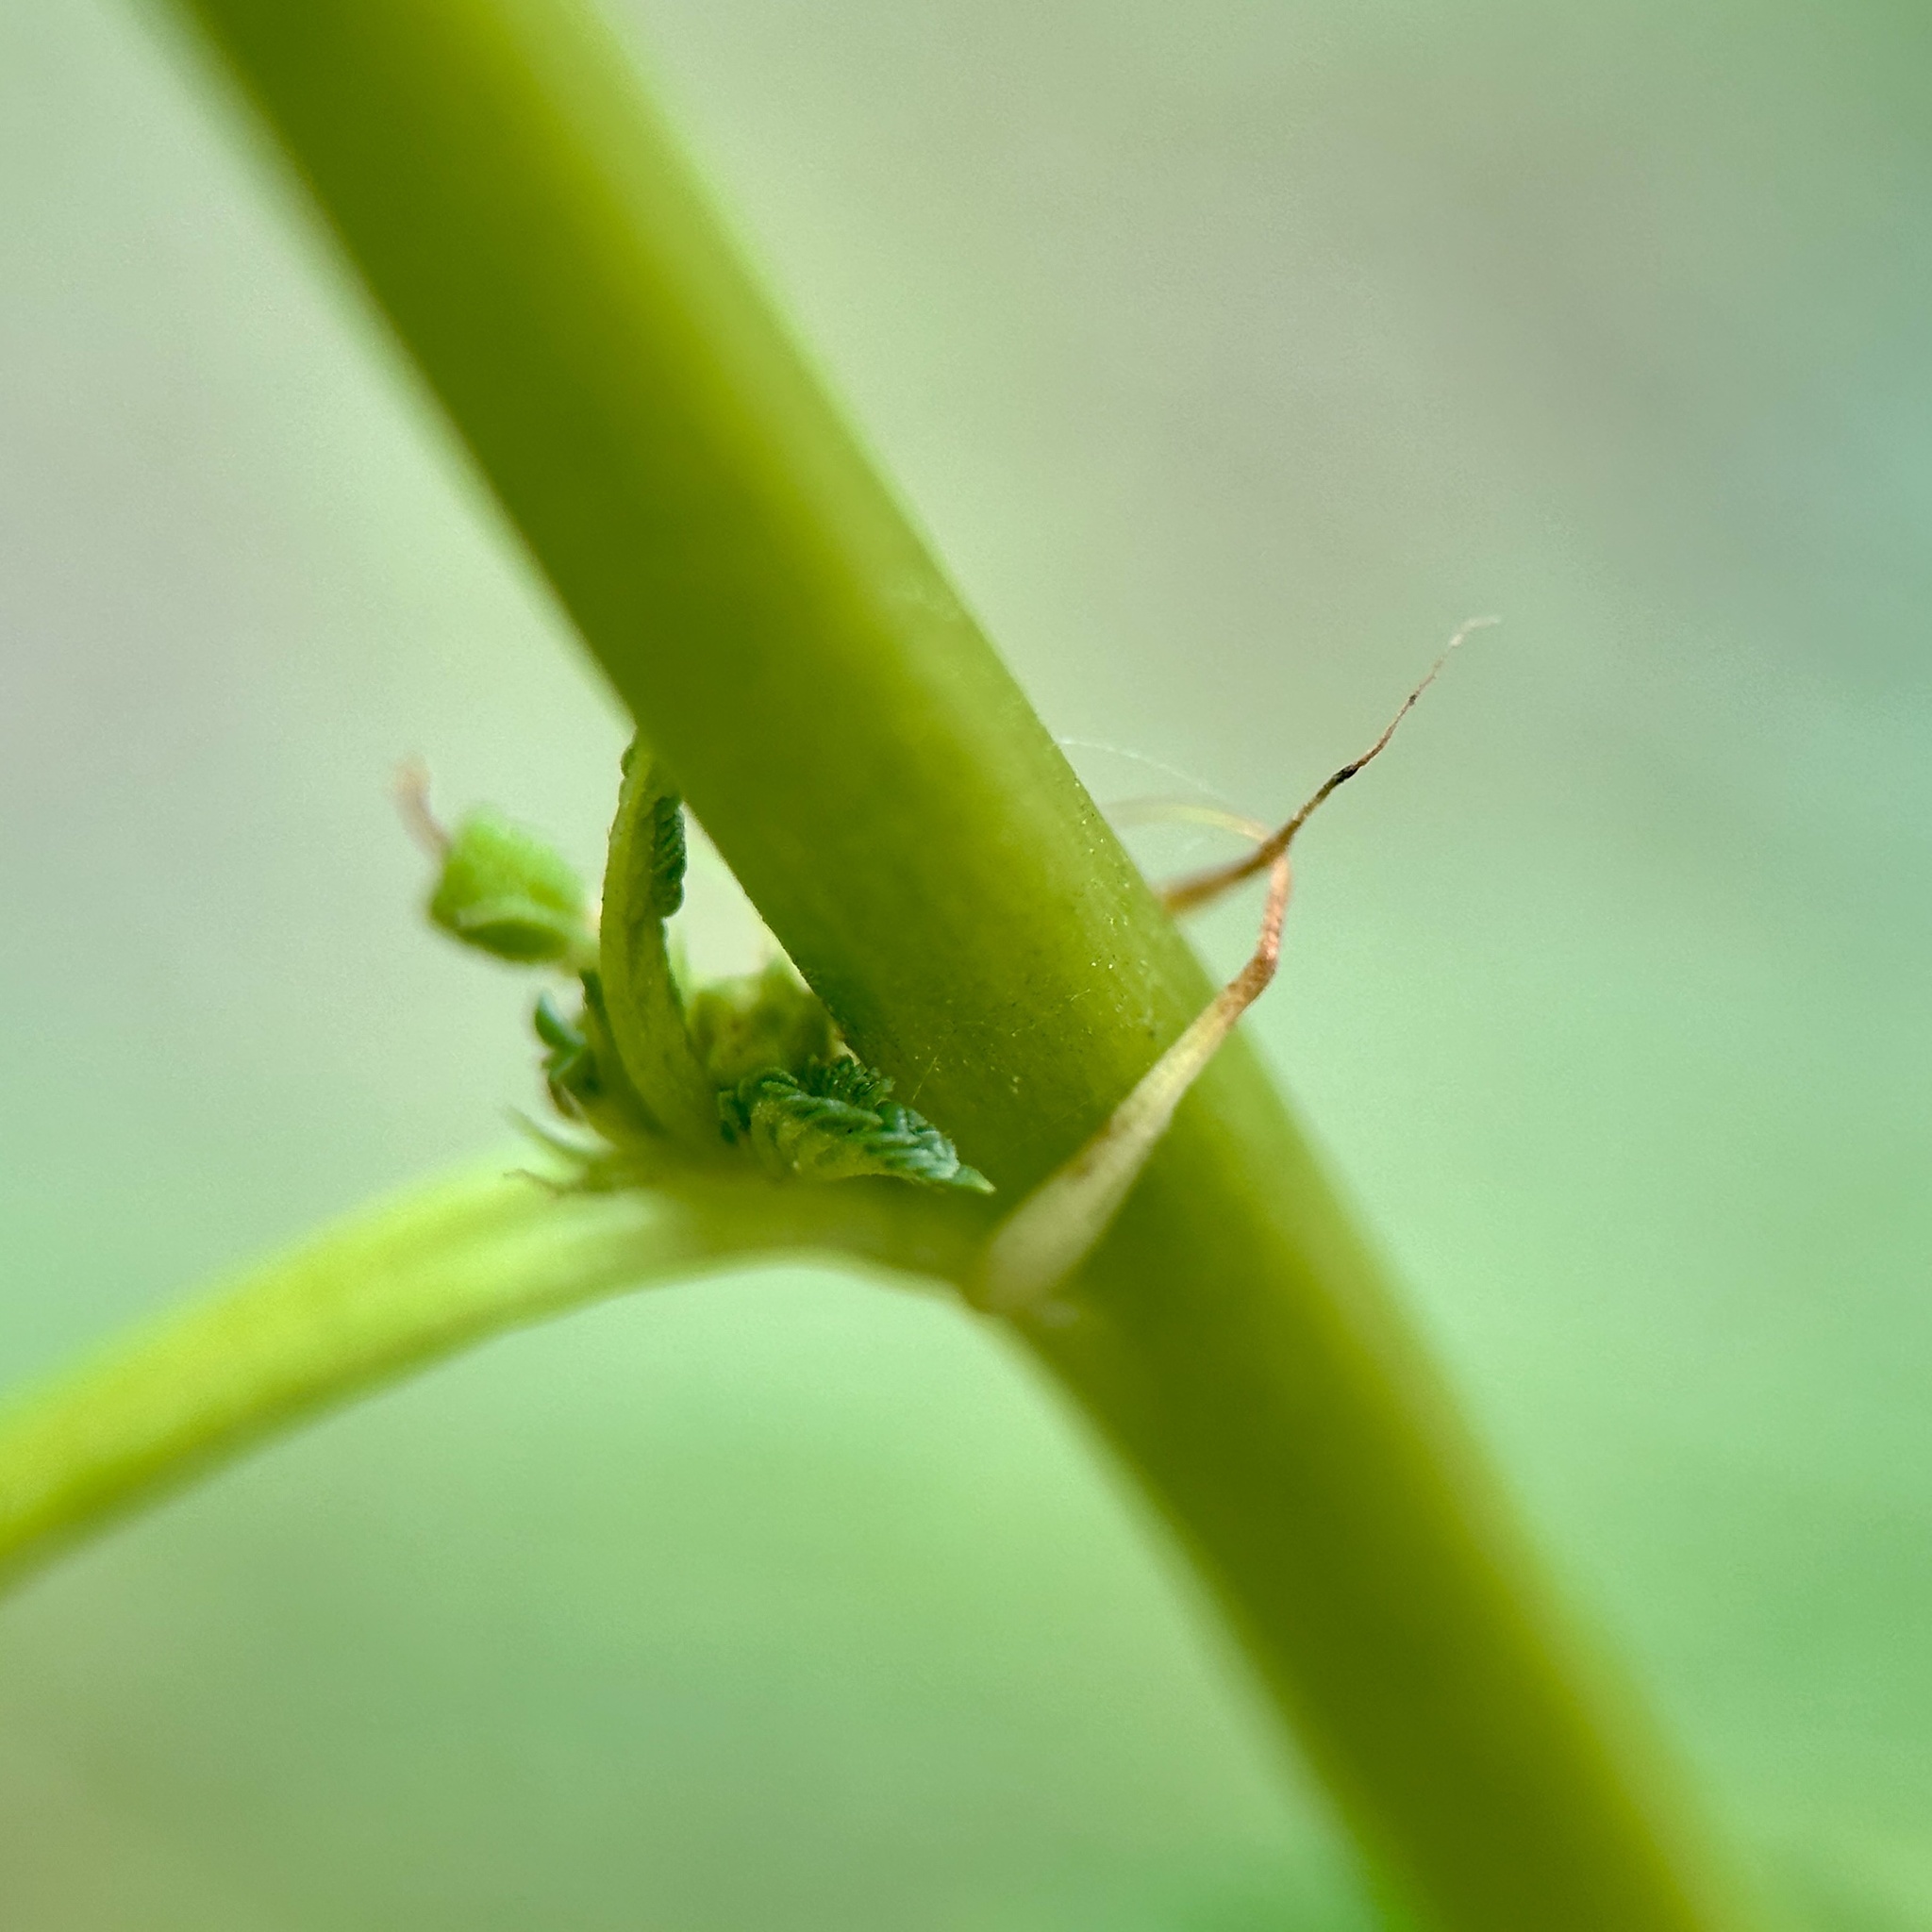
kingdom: Plantae
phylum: Tracheophyta
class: Magnoliopsida
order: Malvales
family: Malvaceae
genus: Corchorus
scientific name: Corchorus capsularis
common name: Jute
